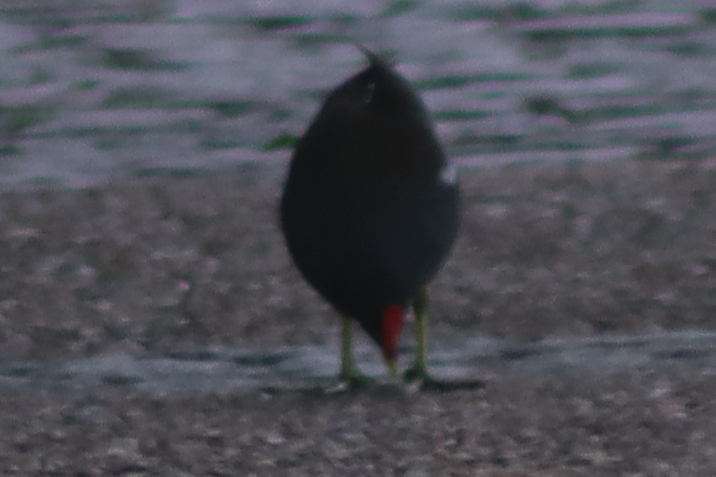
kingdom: Animalia
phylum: Chordata
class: Aves
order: Gruiformes
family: Rallidae
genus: Gallinula
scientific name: Gallinula chloropus
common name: Common moorhen
